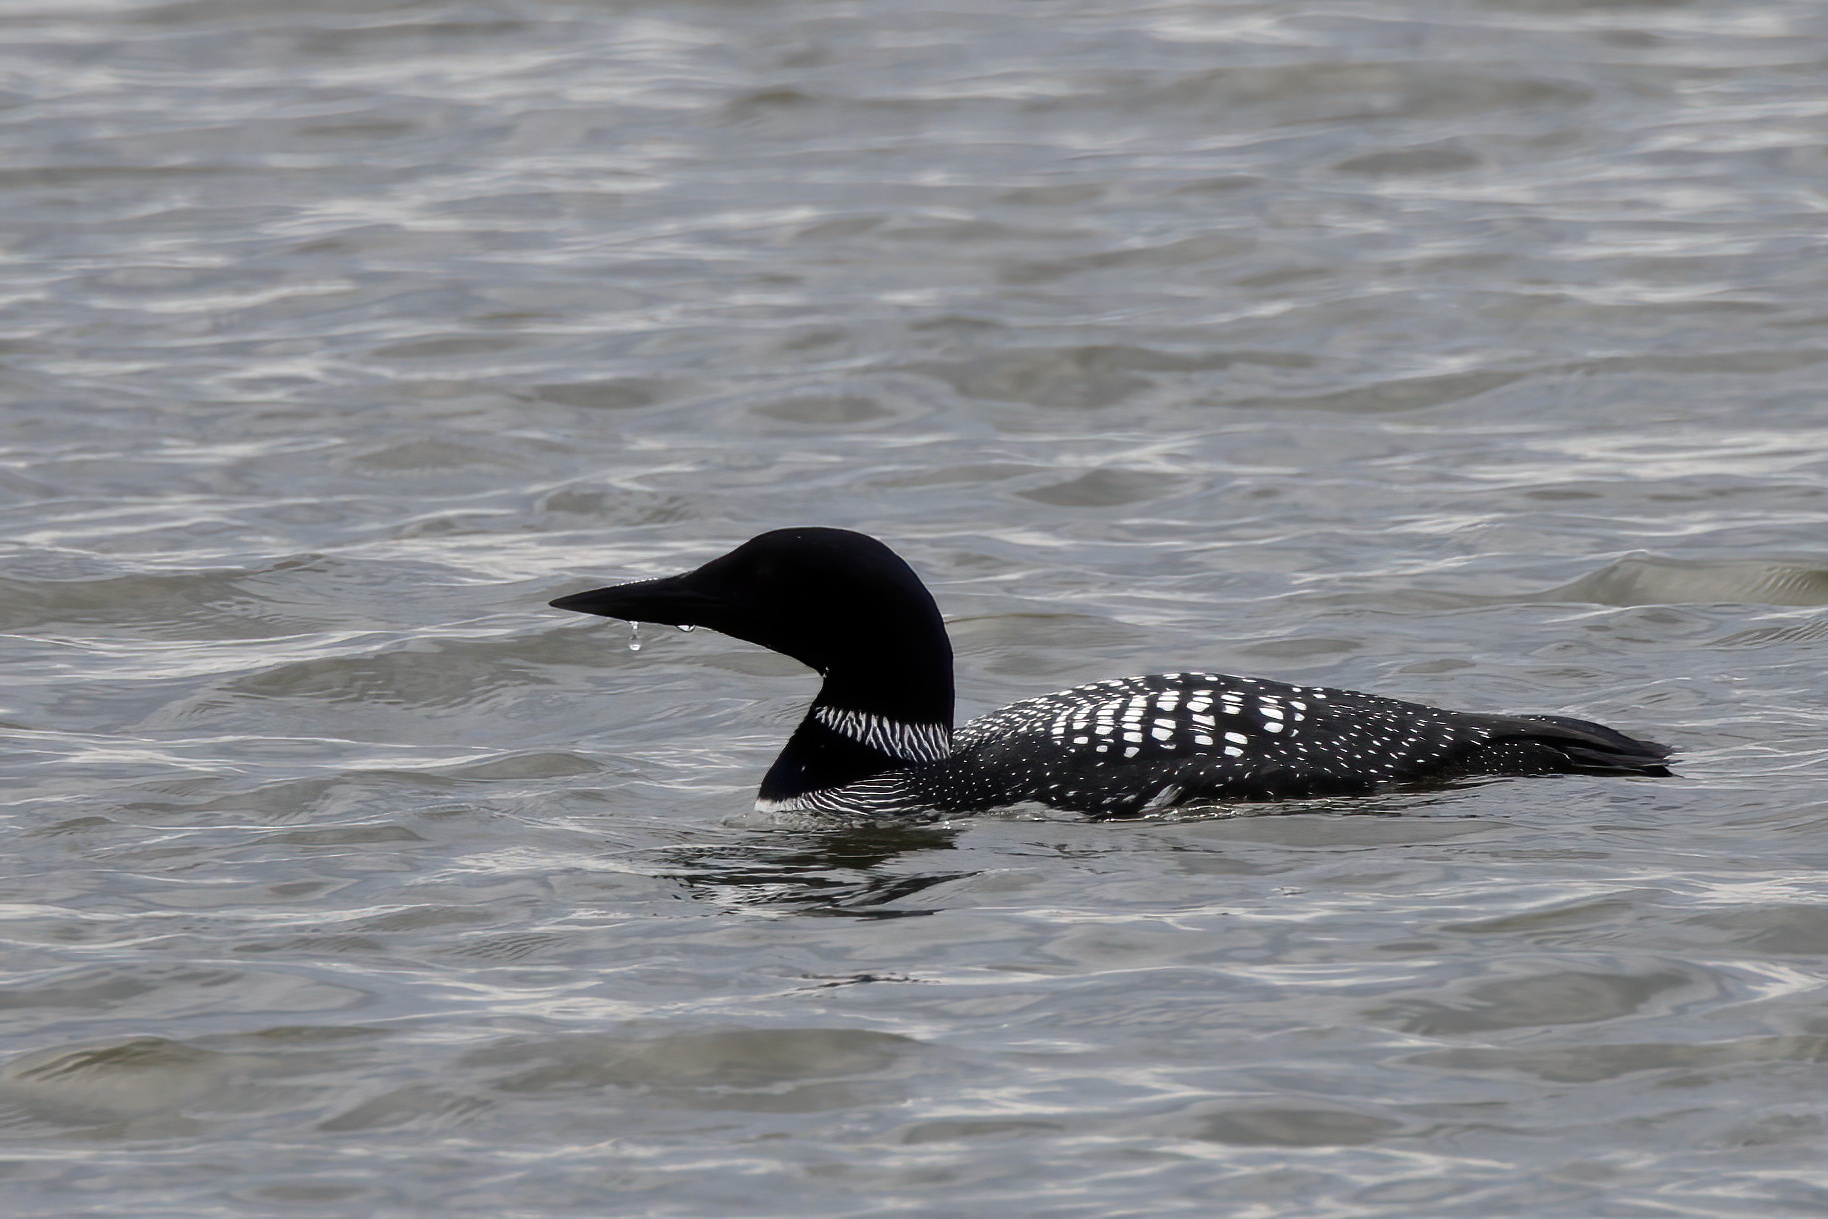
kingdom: Animalia
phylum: Chordata
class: Aves
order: Gaviiformes
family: Gaviidae
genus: Gavia
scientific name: Gavia immer
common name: Common loon
